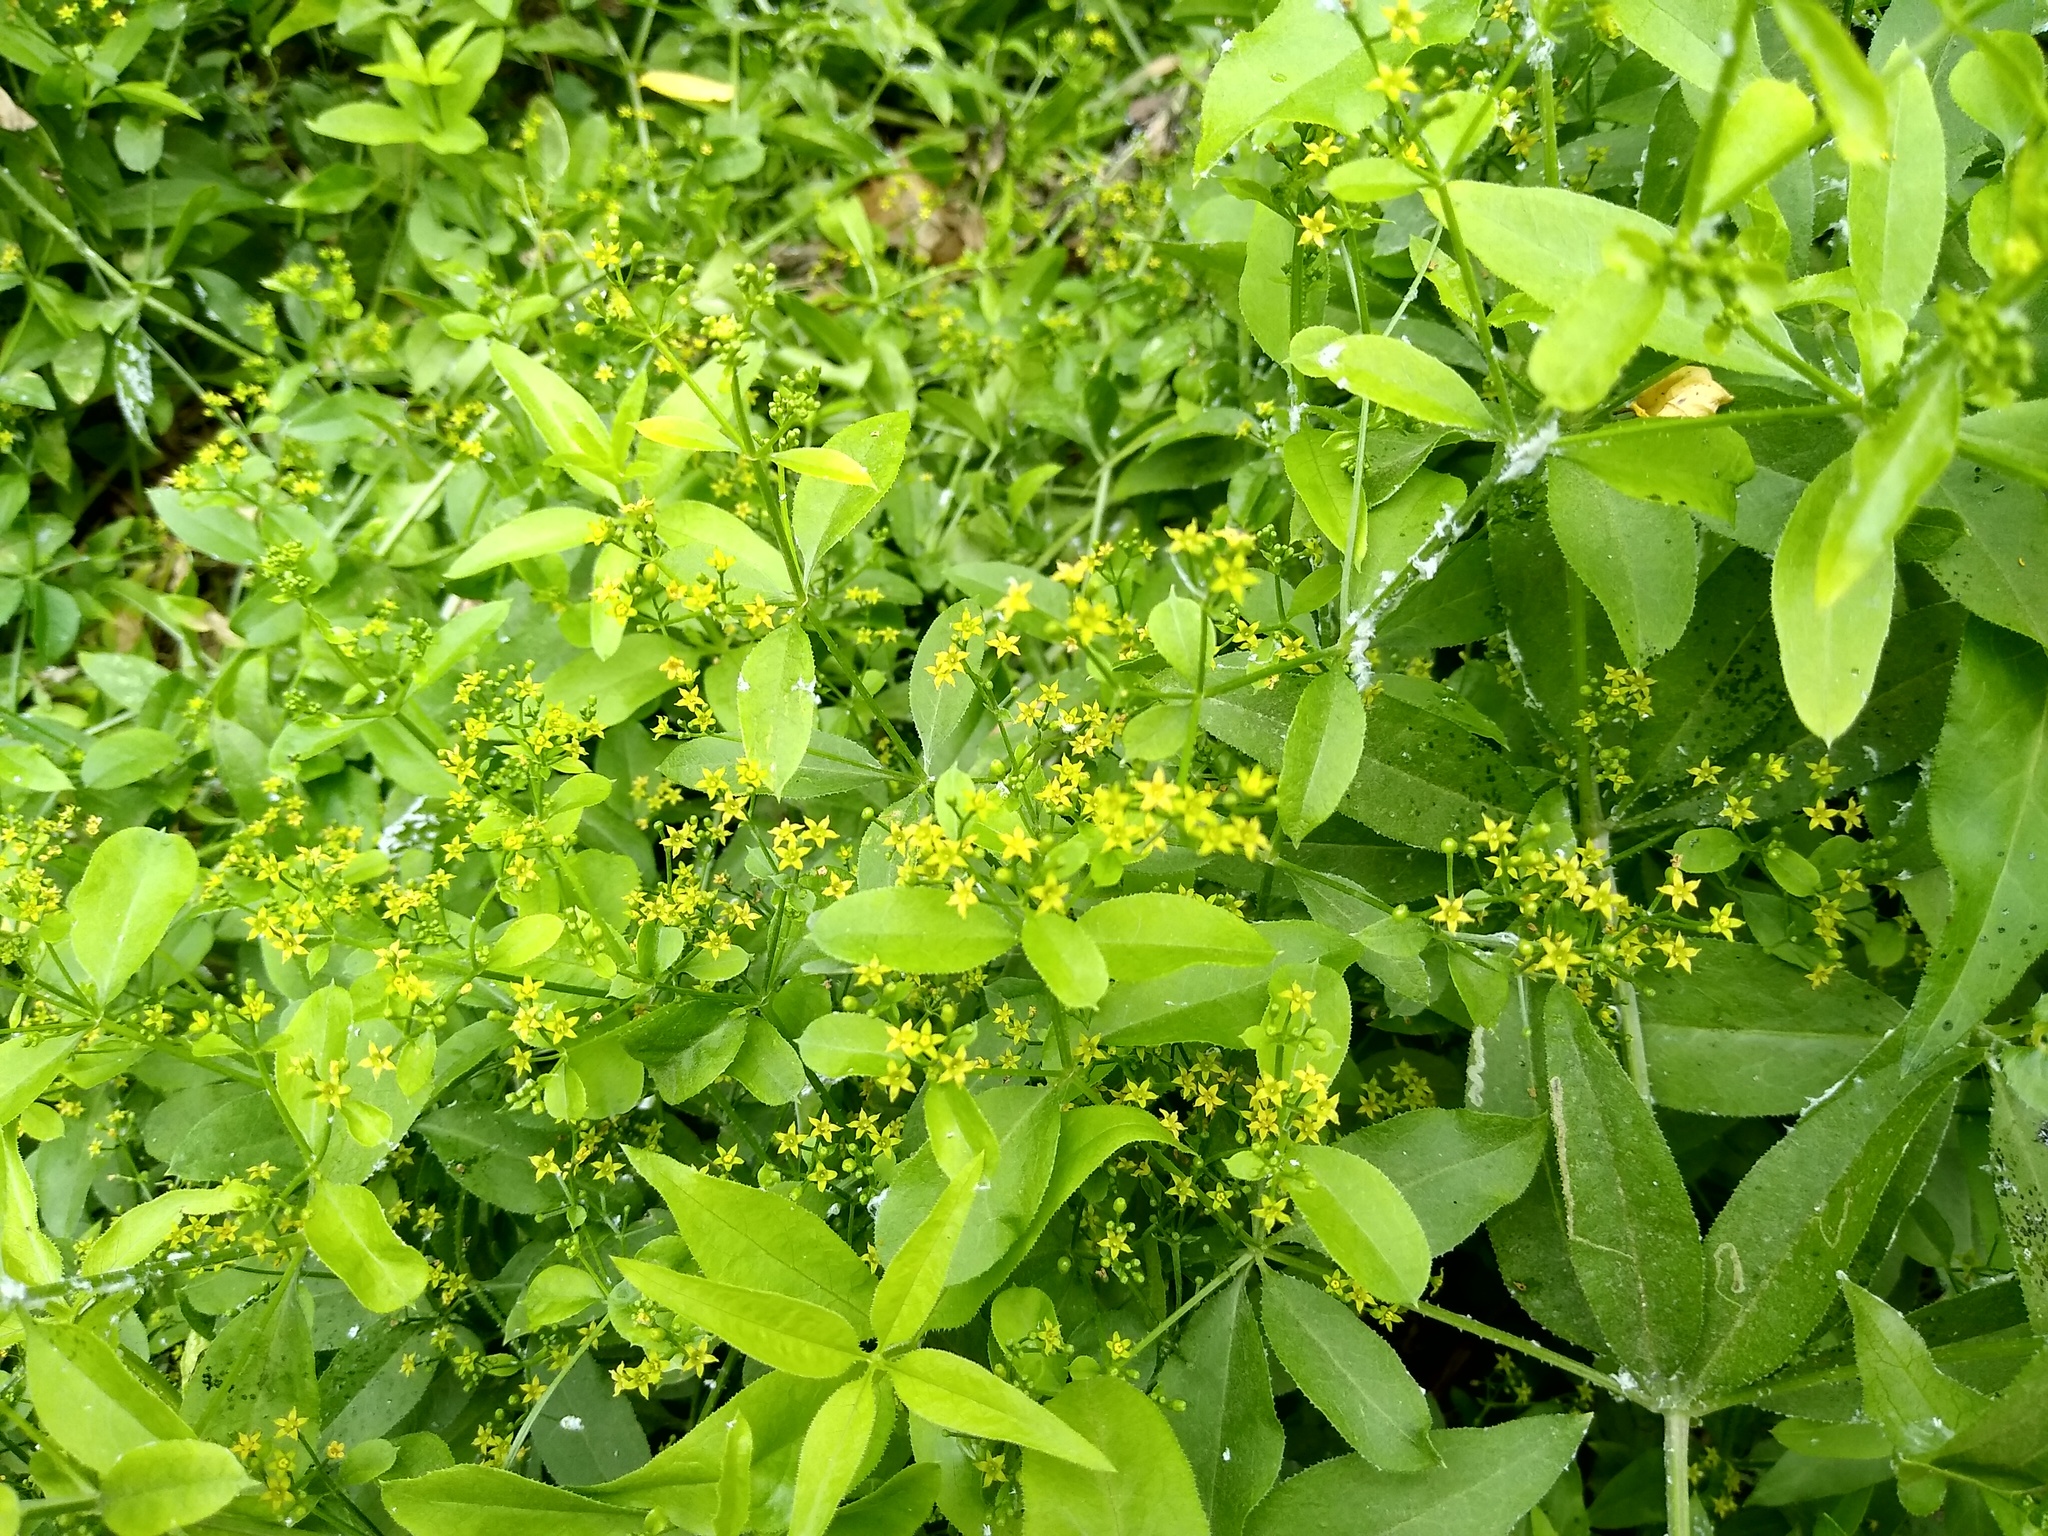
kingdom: Plantae
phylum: Tracheophyta
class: Magnoliopsida
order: Gentianales
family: Rubiaceae
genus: Rubia
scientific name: Rubia tinctorum
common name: Dyer's madder
